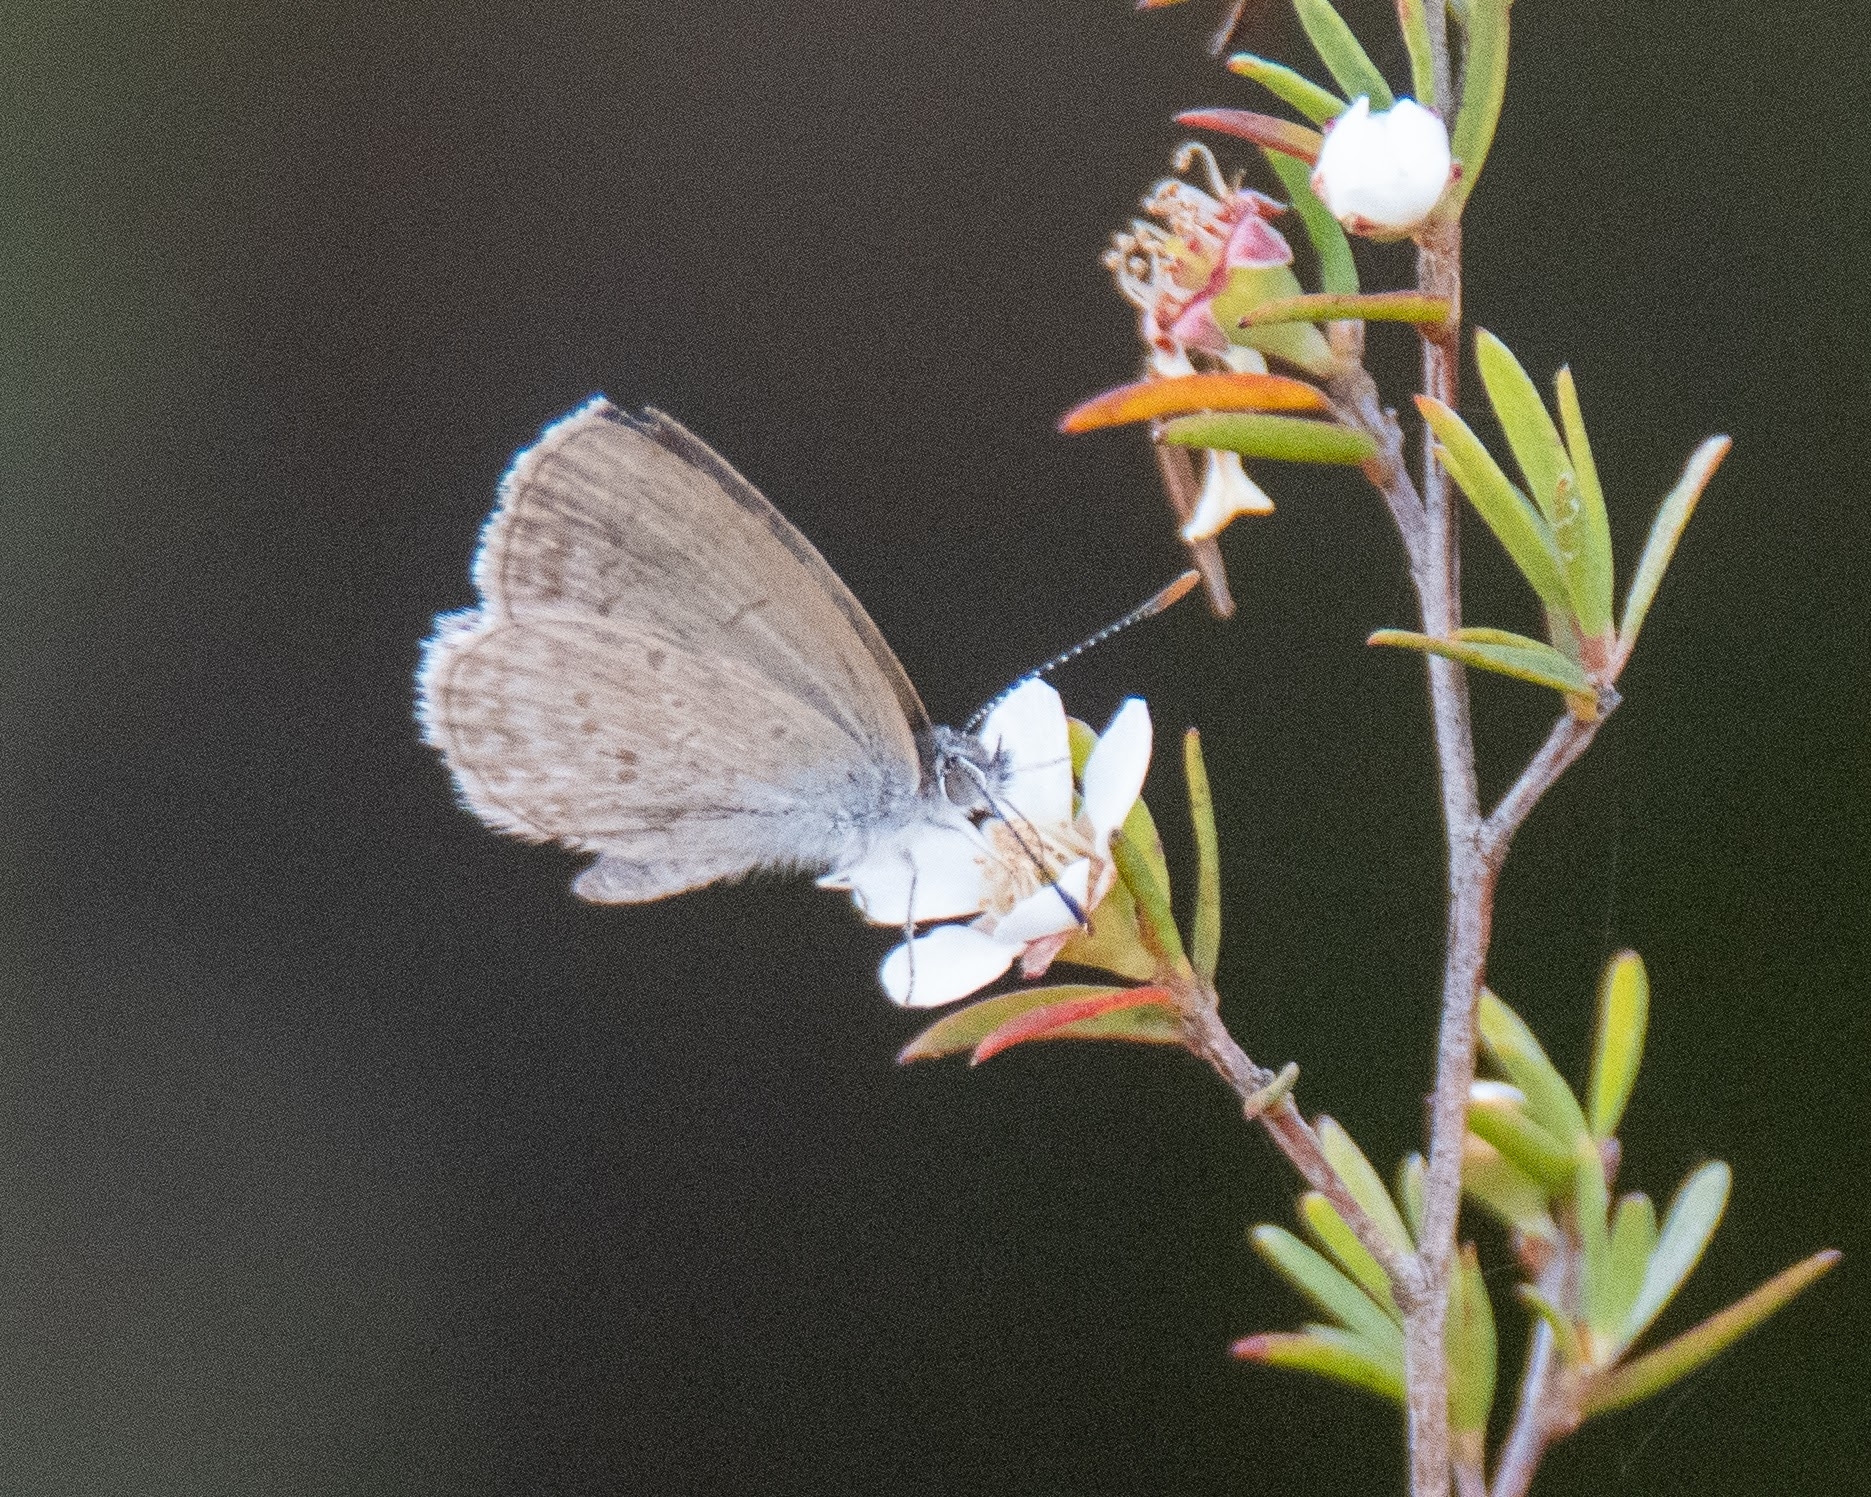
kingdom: Animalia
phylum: Arthropoda
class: Insecta
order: Lepidoptera
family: Lycaenidae
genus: Zizina
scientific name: Zizina labradus
